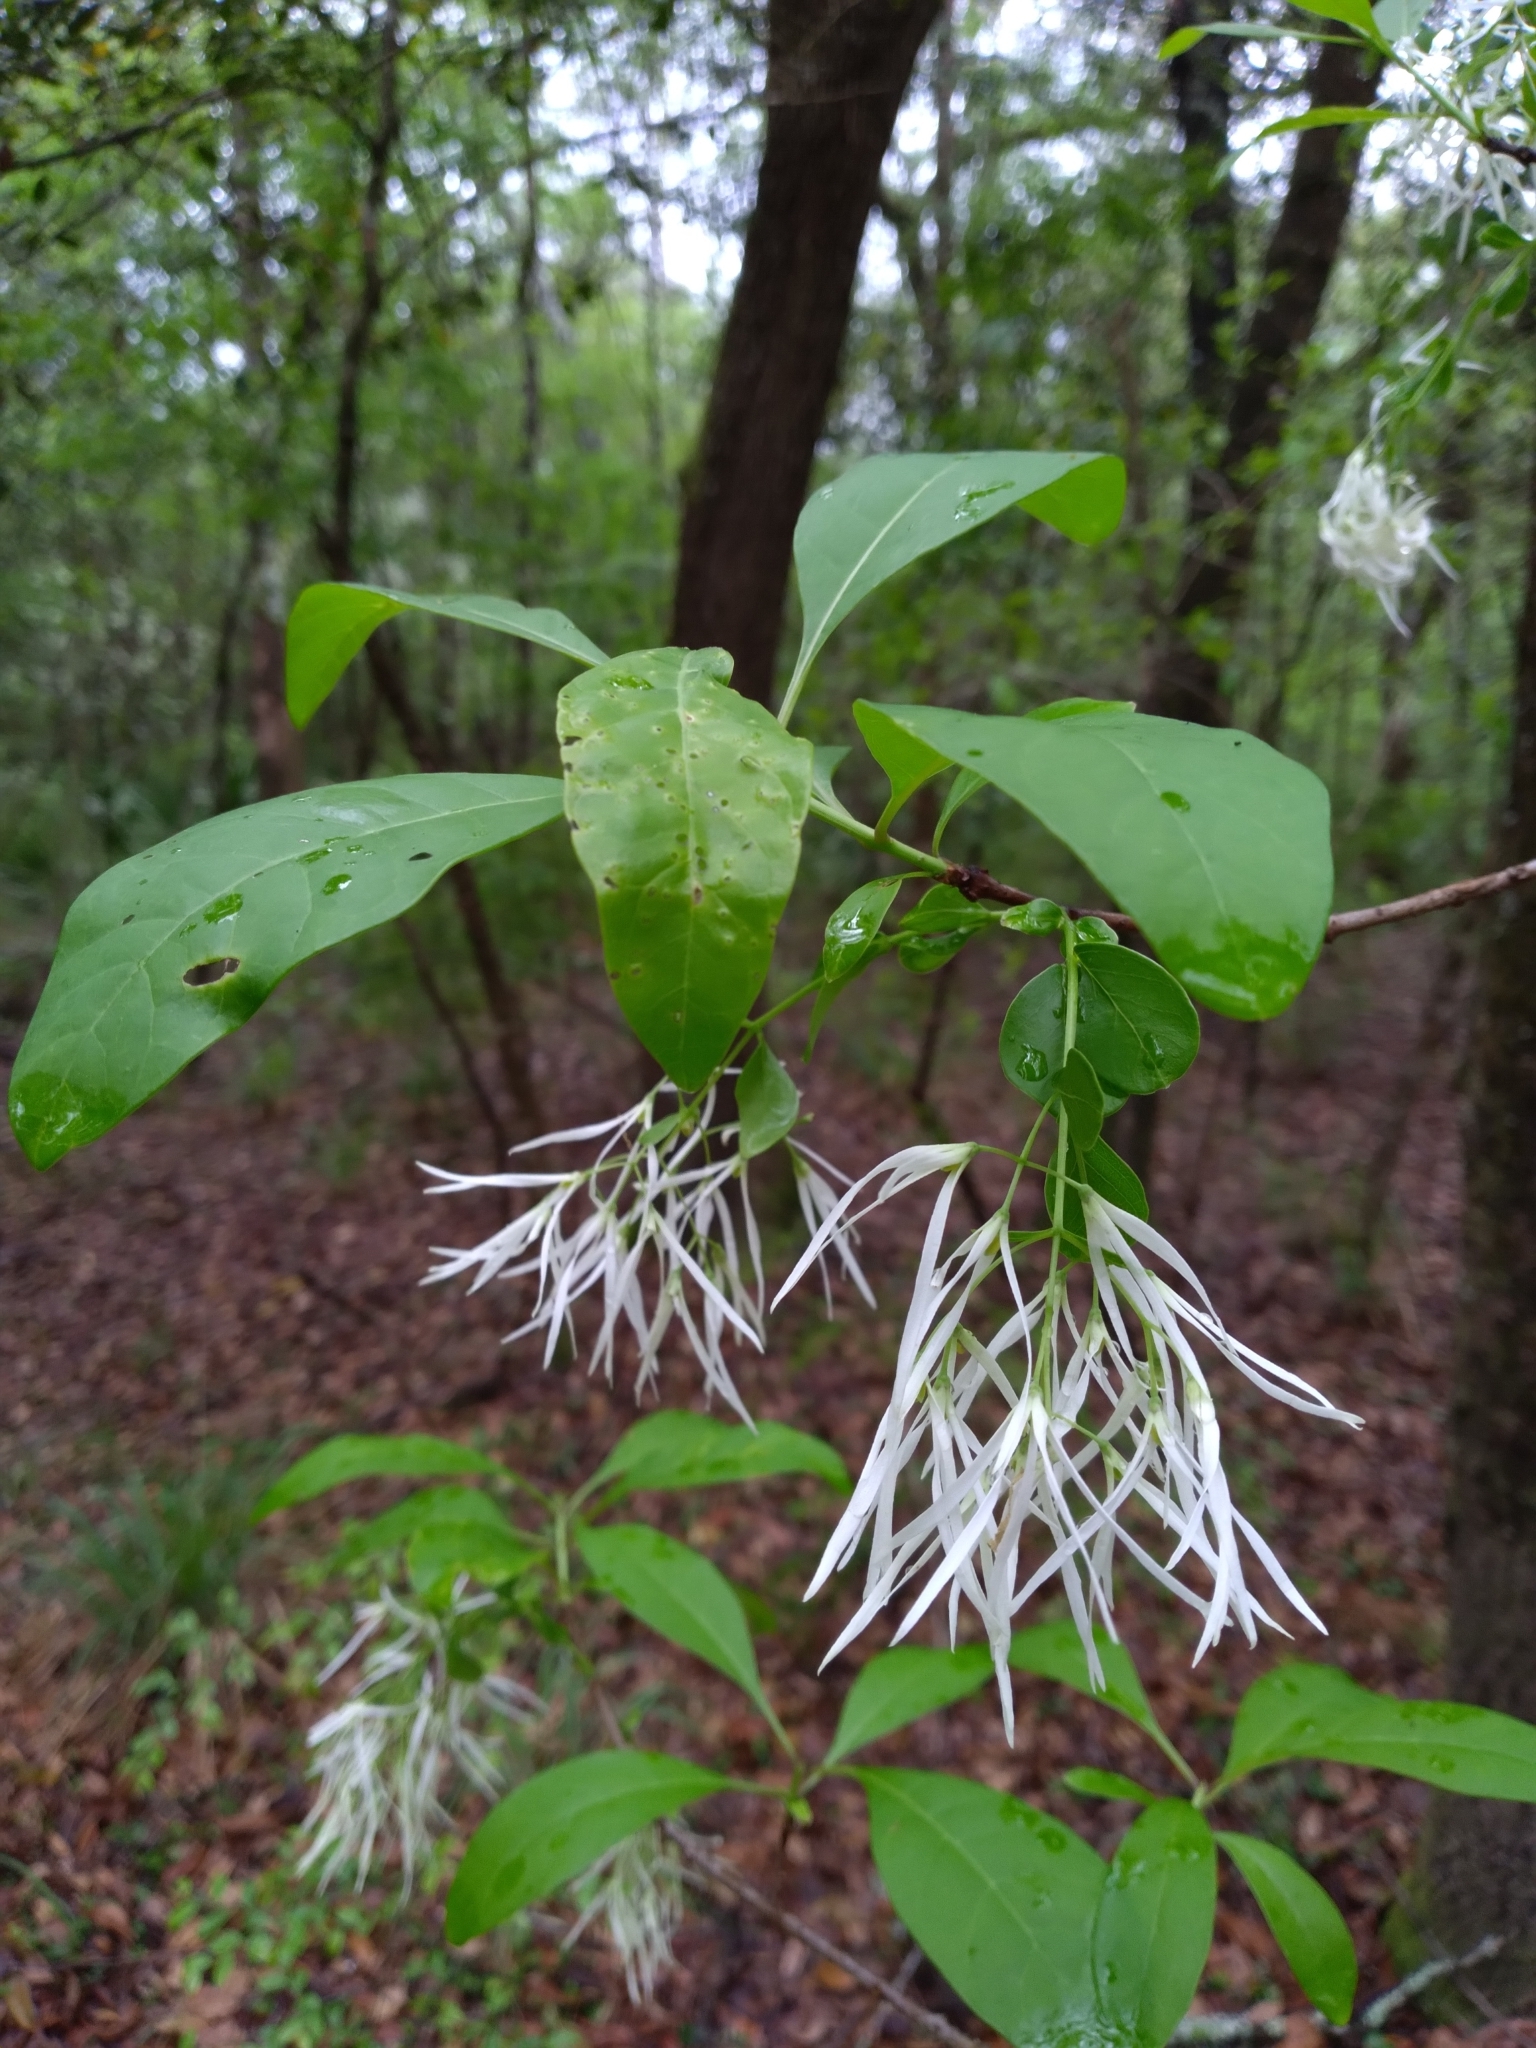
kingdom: Plantae
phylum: Tracheophyta
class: Magnoliopsida
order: Lamiales
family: Oleaceae
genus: Chionanthus
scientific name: Chionanthus virginicus
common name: American fringetree
